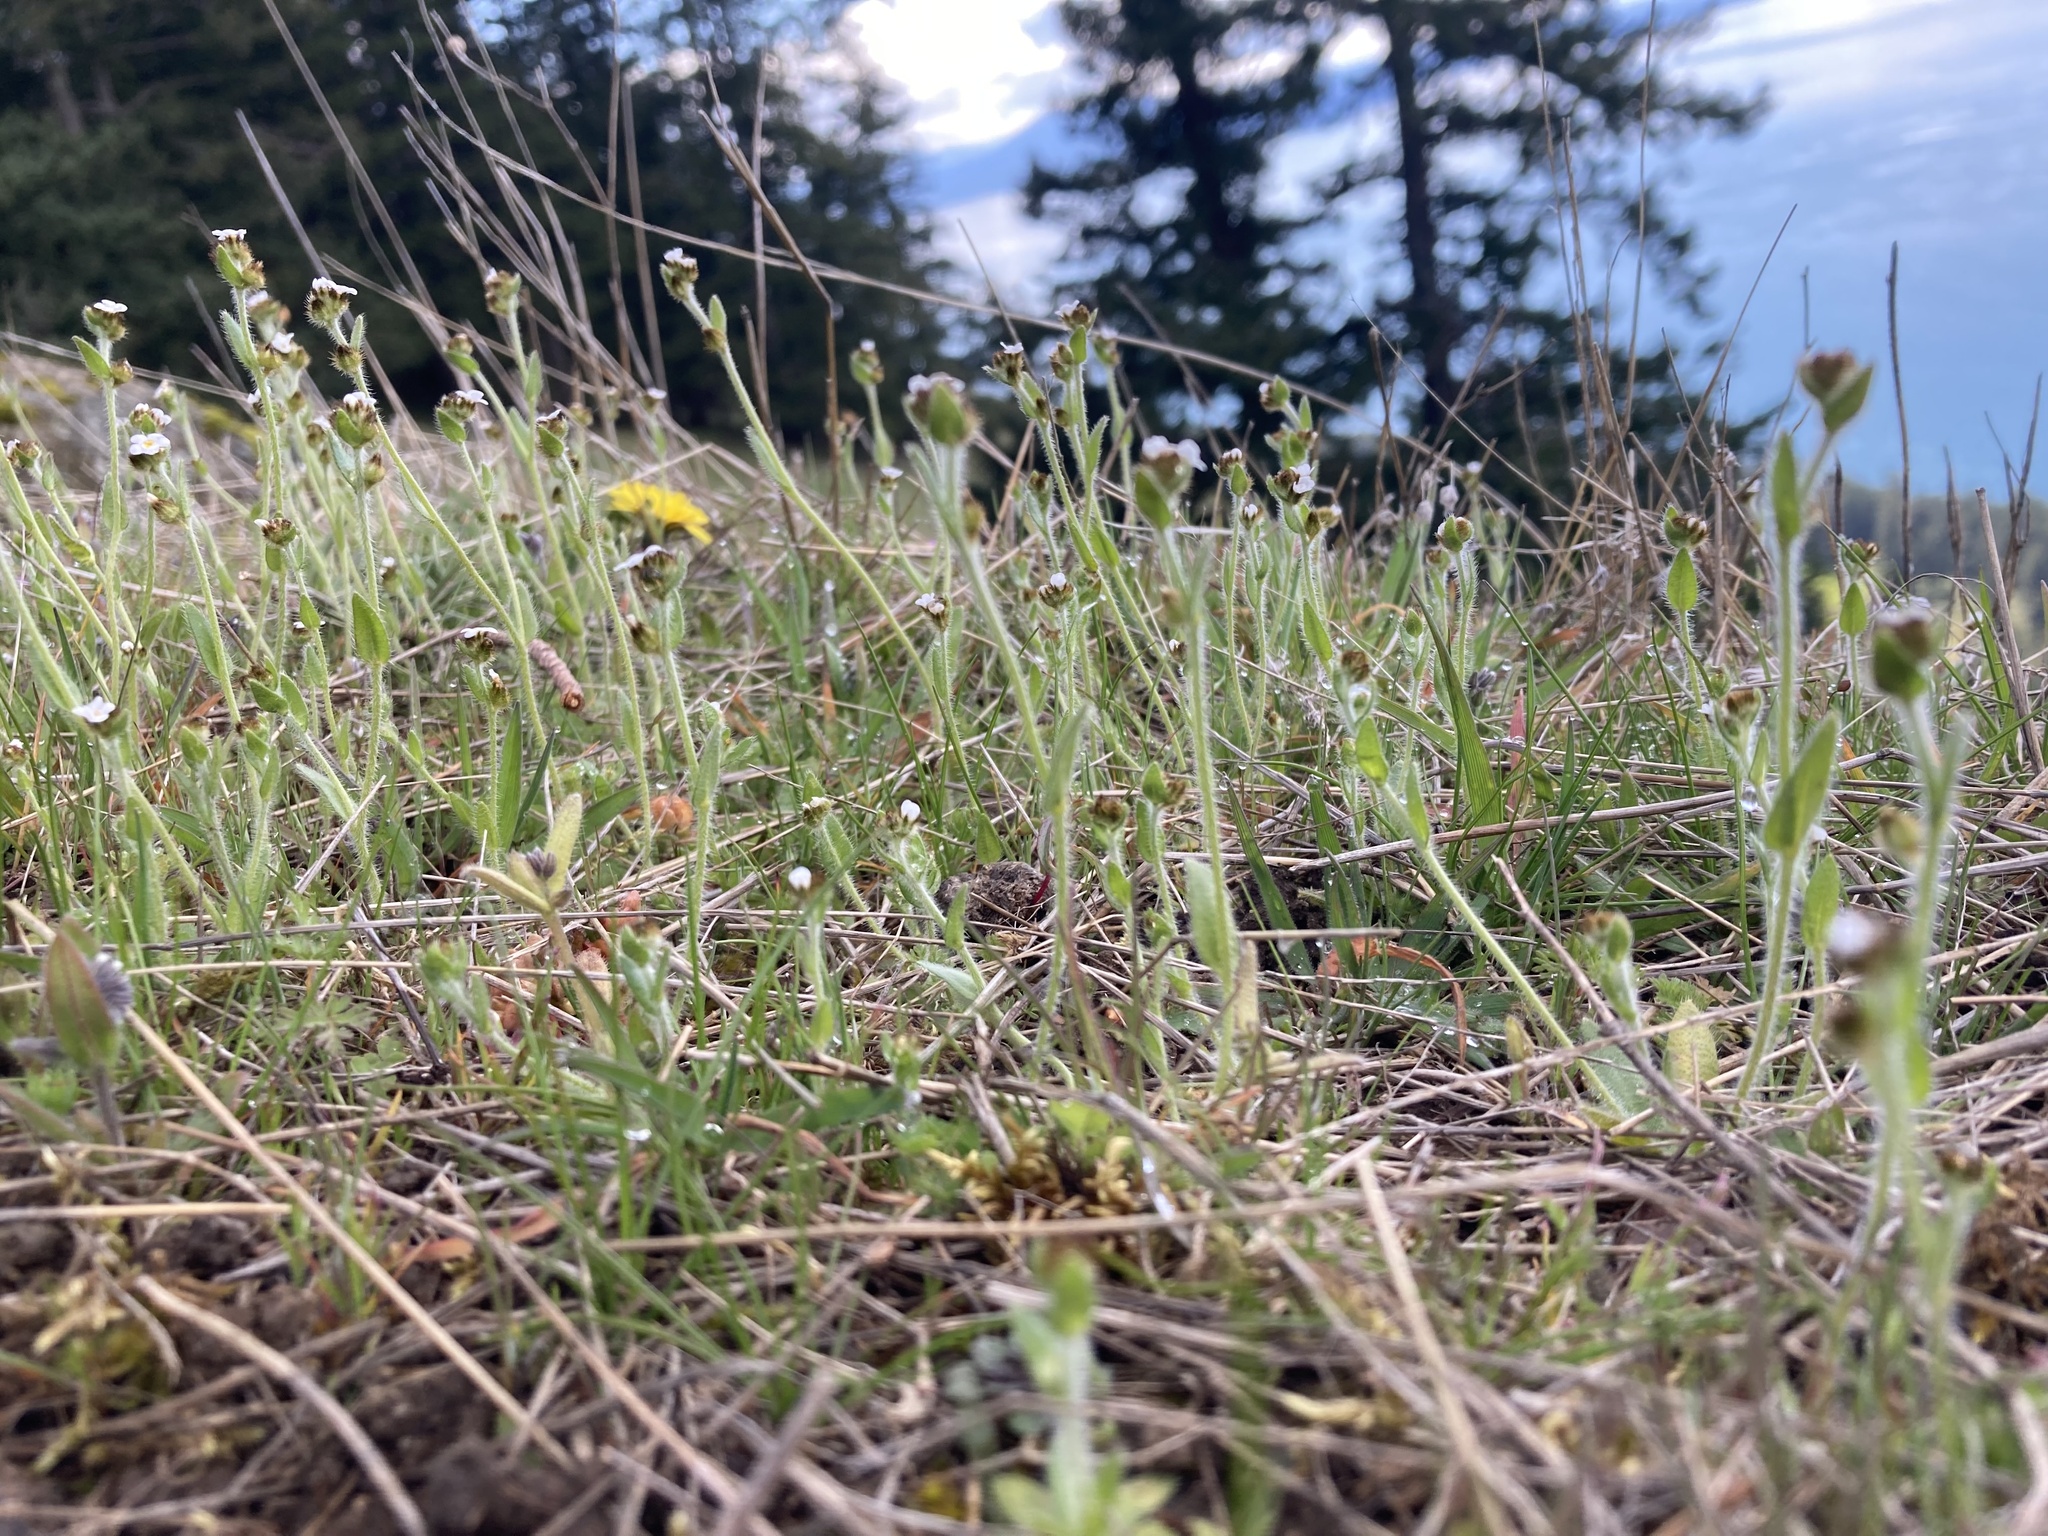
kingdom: Plantae
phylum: Tracheophyta
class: Magnoliopsida
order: Boraginales
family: Boraginaceae
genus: Plagiobothrys
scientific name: Plagiobothrys tenellus
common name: Pacific popcornflower
